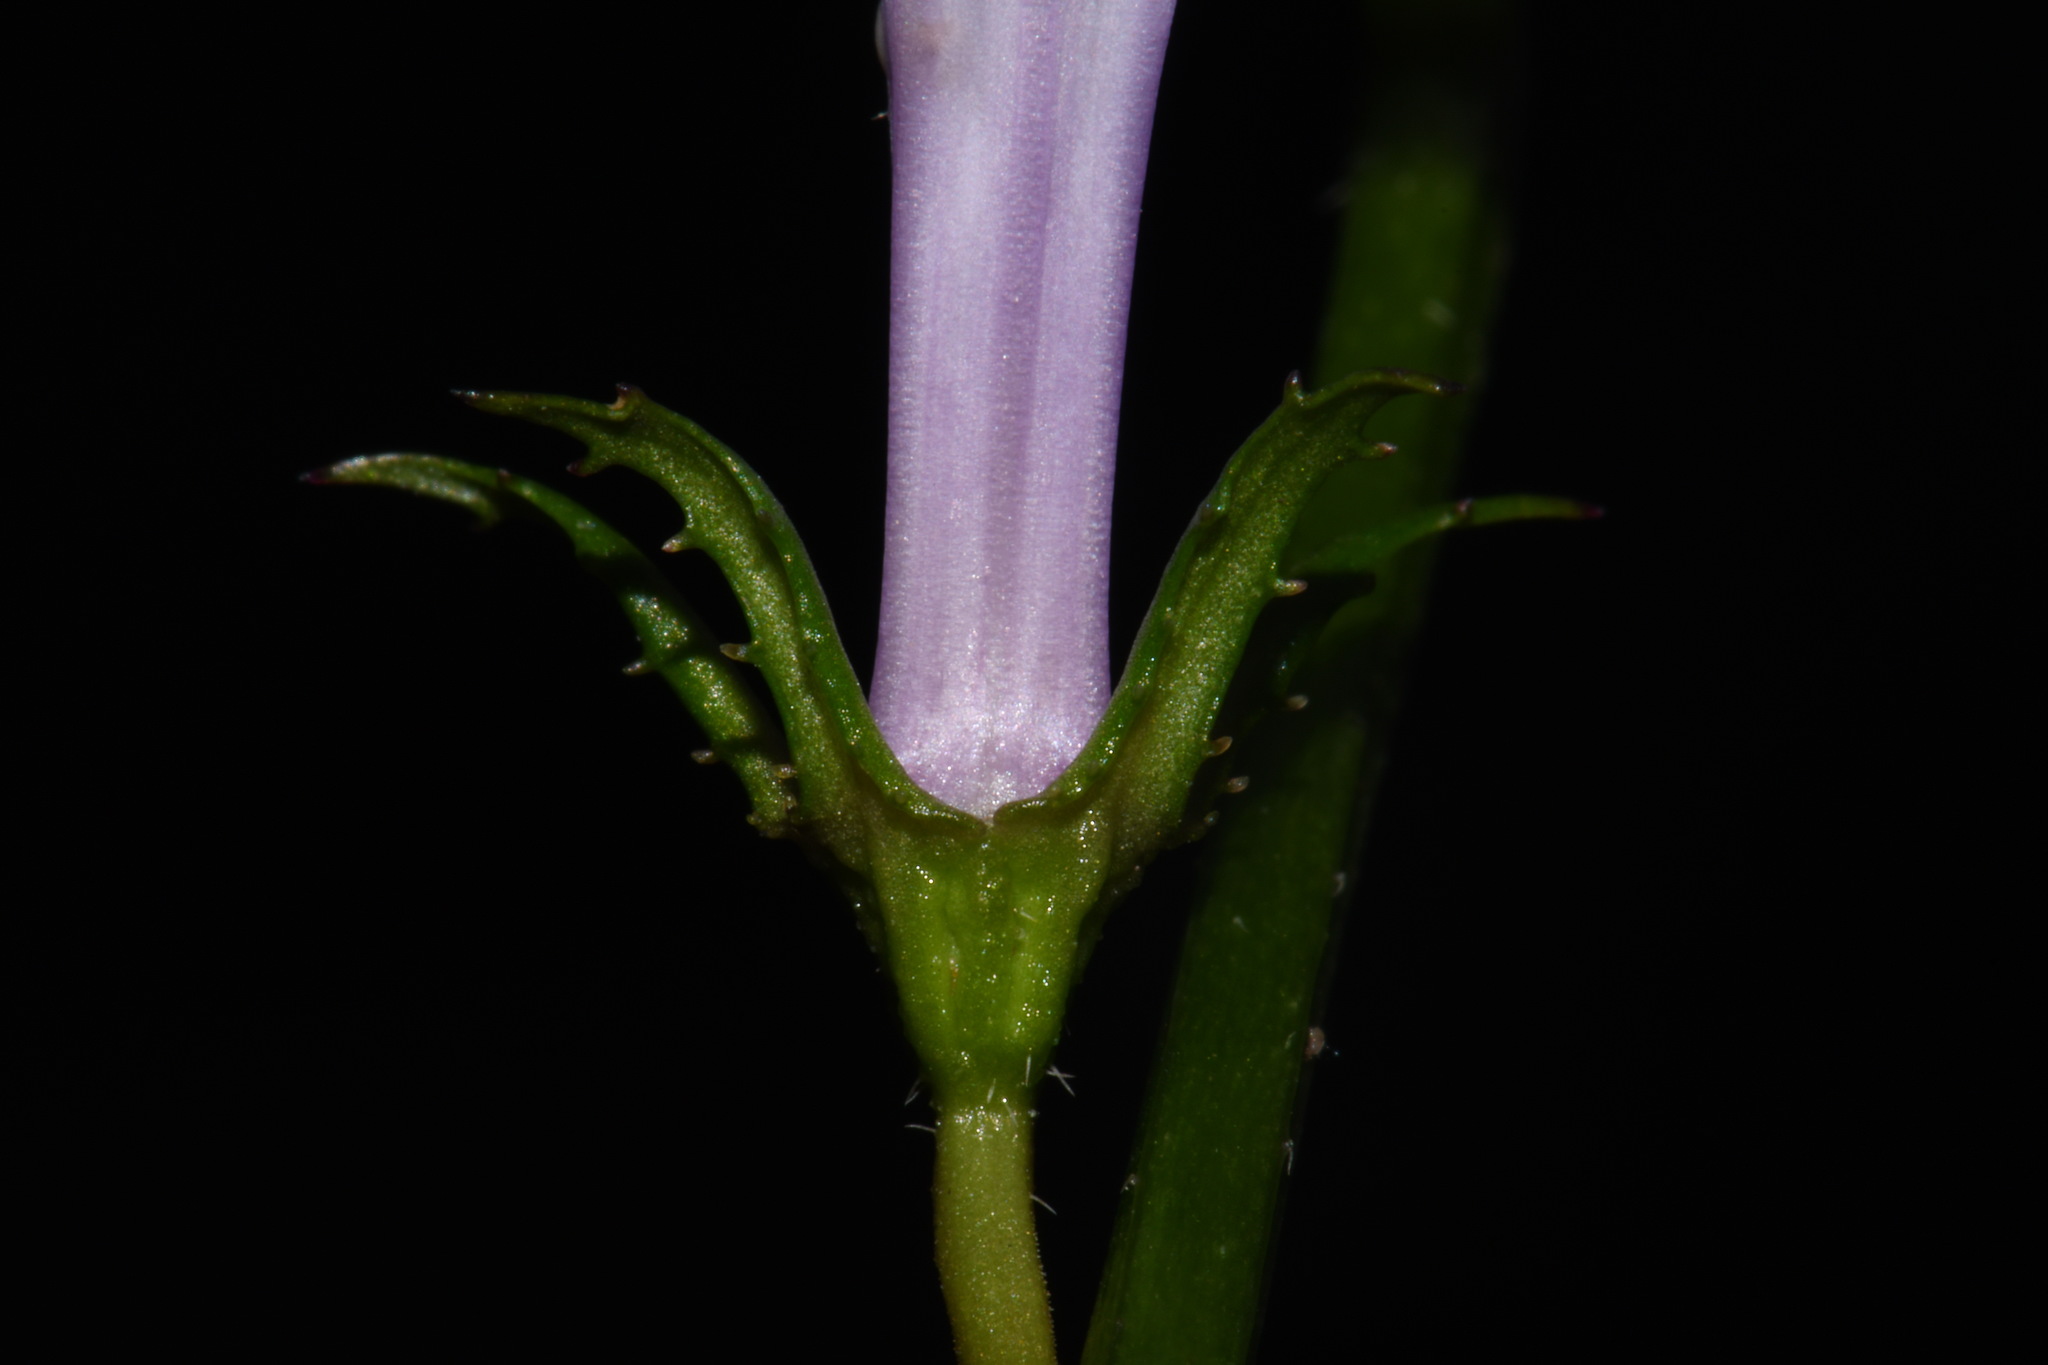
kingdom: Plantae
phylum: Tracheophyta
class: Magnoliopsida
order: Asterales
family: Campanulaceae
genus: Lobelia
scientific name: Lobelia georgiana
